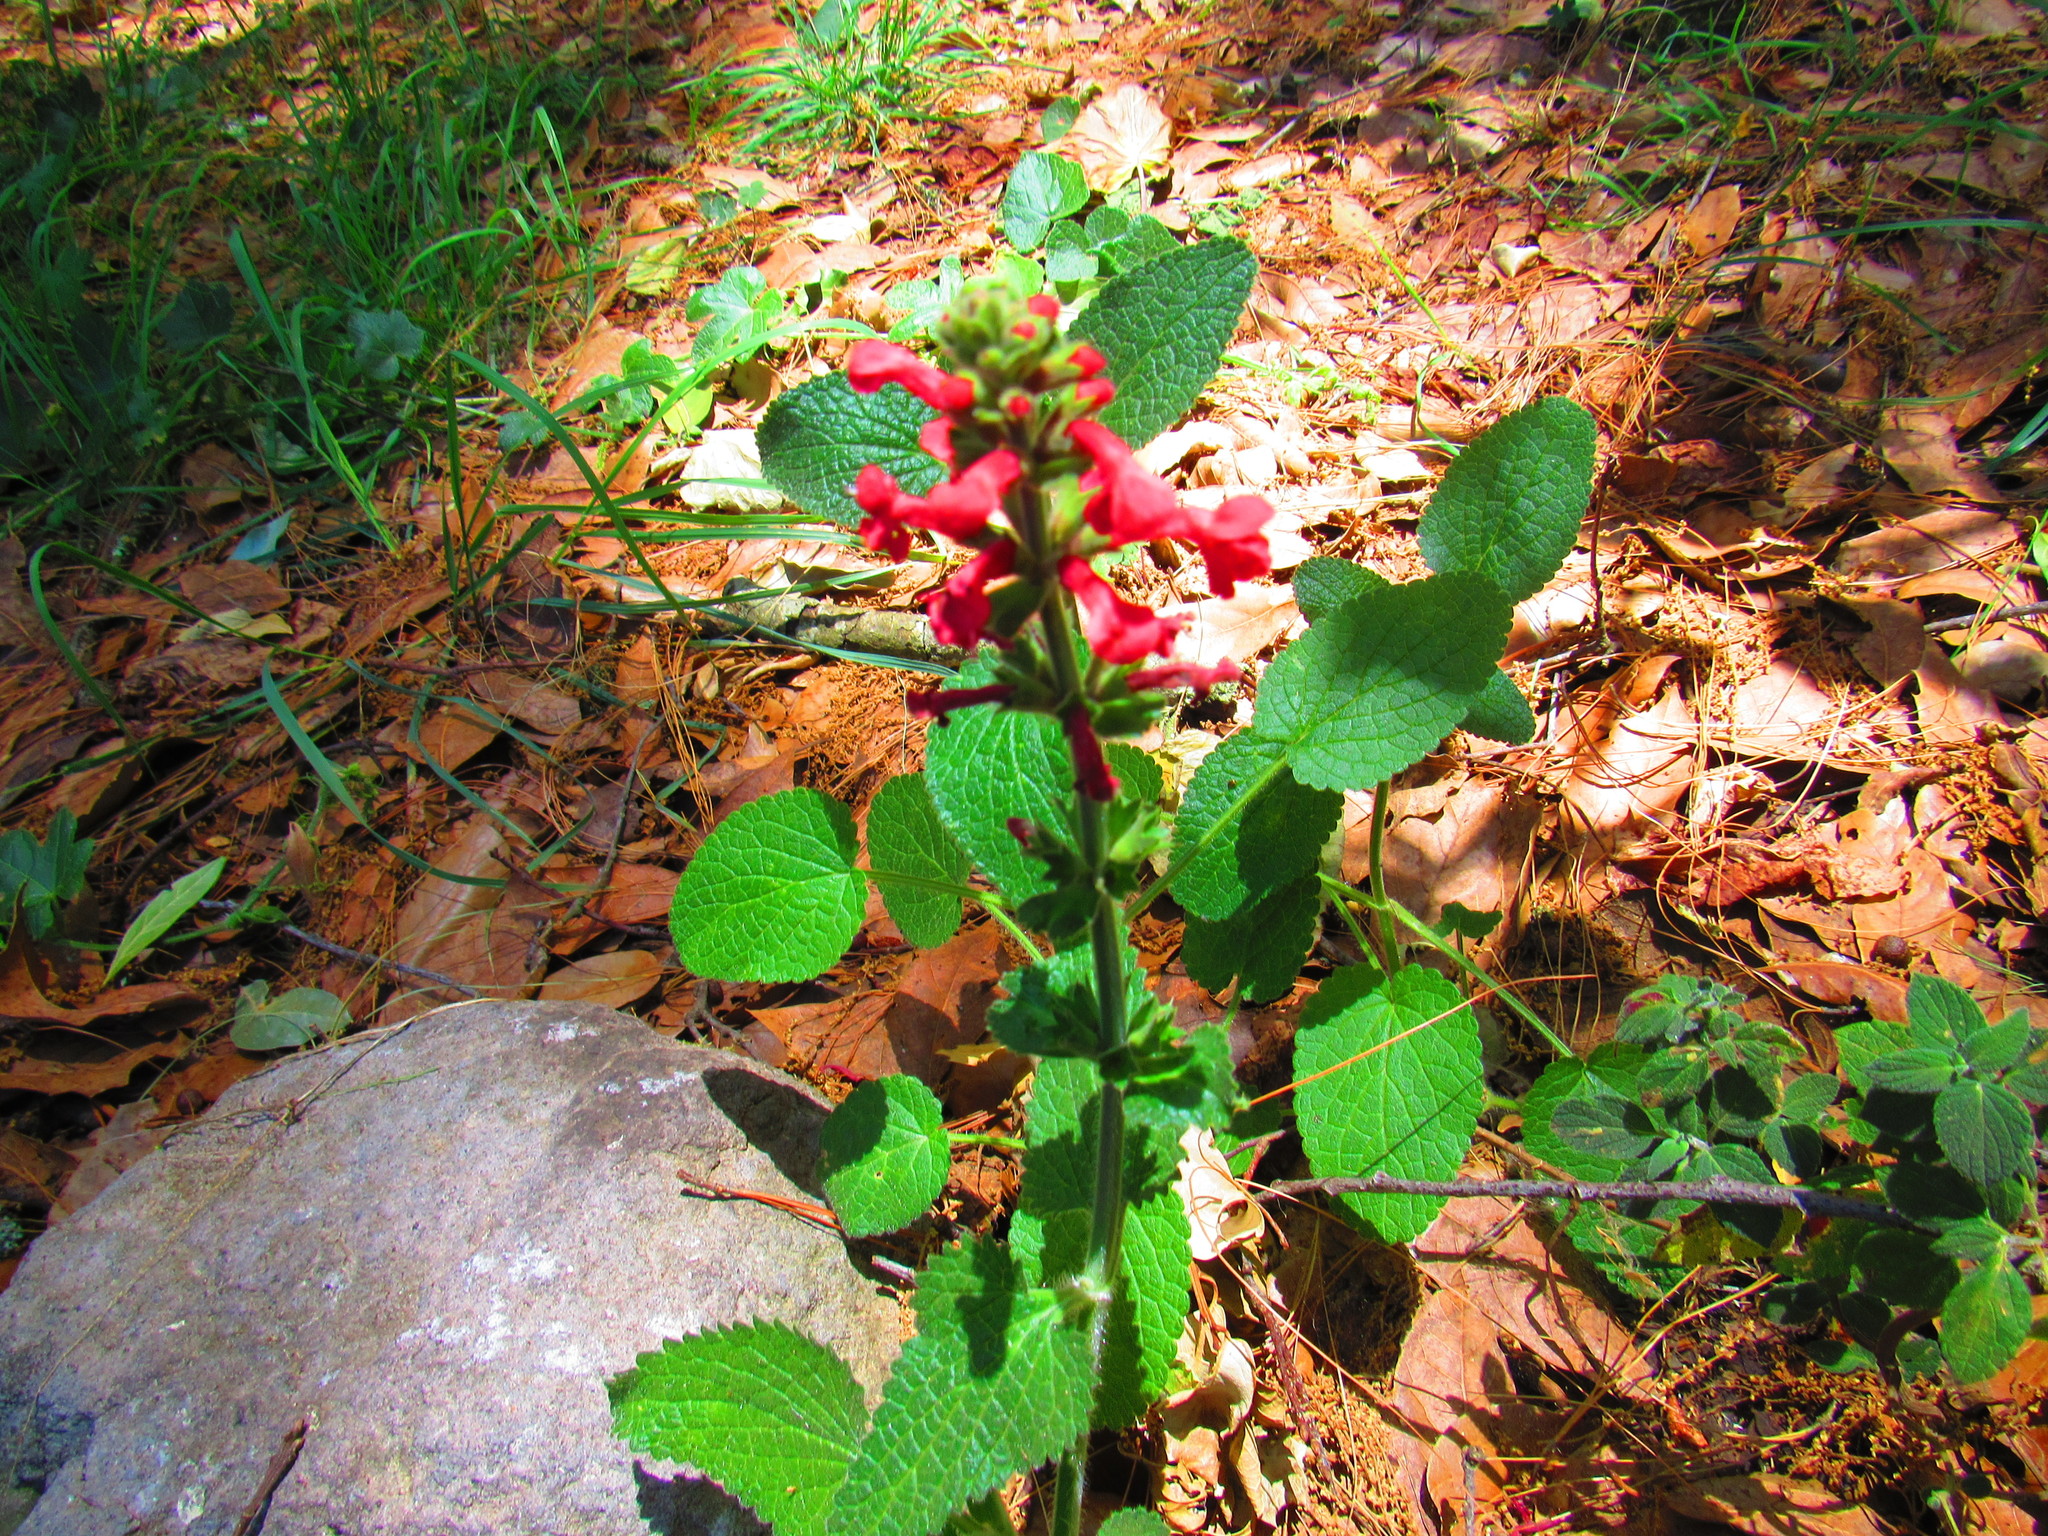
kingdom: Plantae
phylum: Tracheophyta
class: Magnoliopsida
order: Lamiales
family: Lamiaceae
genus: Stachys
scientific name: Stachys coccinea
